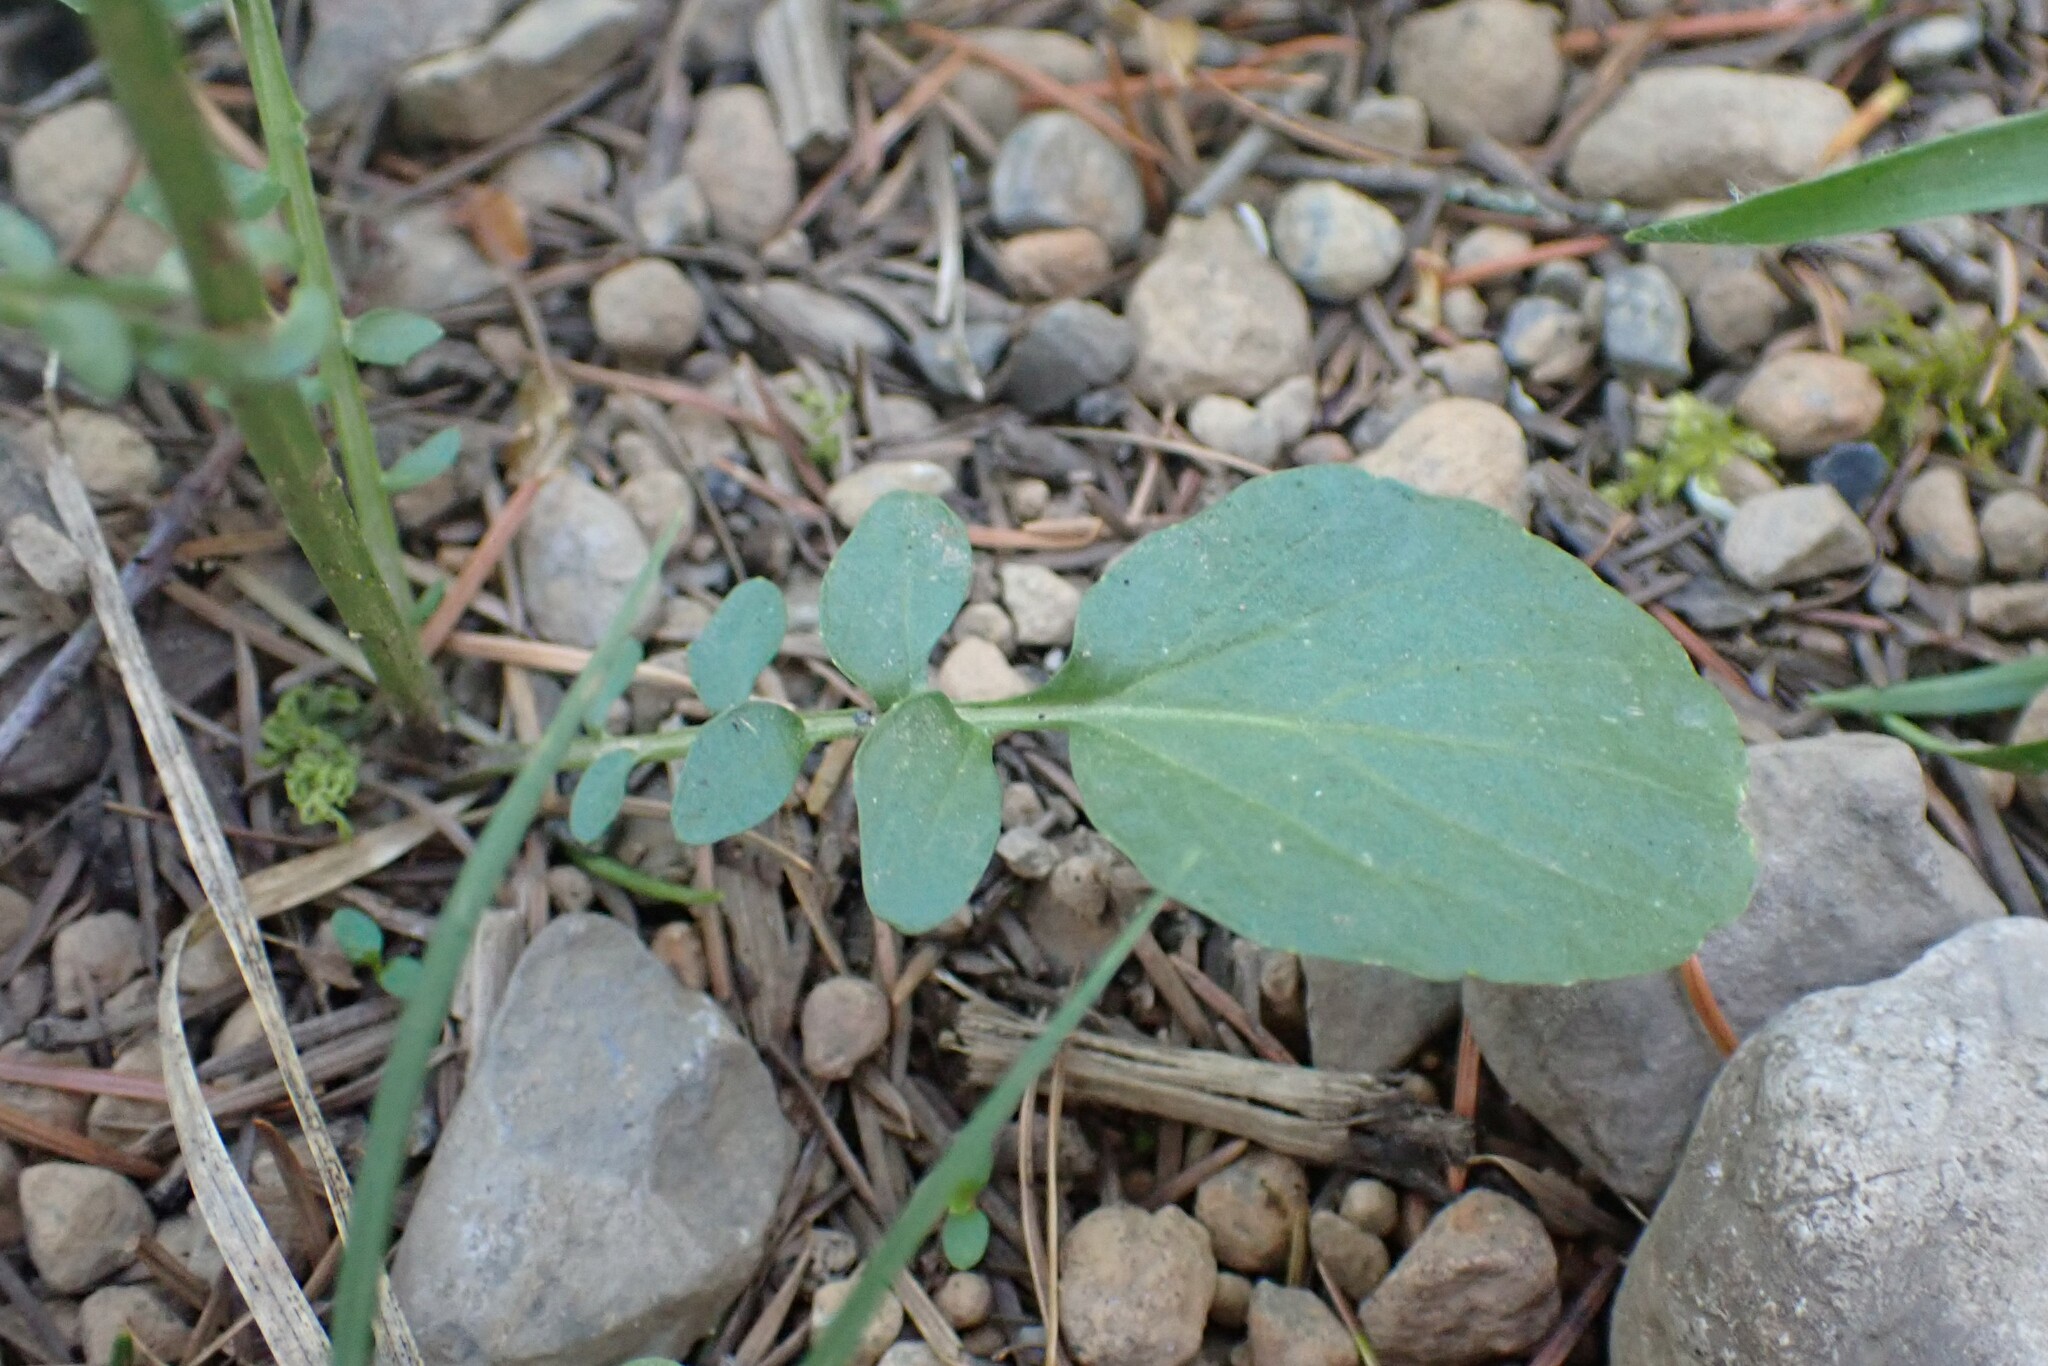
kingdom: Plantae
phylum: Tracheophyta
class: Magnoliopsida
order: Brassicales
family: Brassicaceae
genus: Barbarea
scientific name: Barbarea orthoceras
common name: American wintercress
